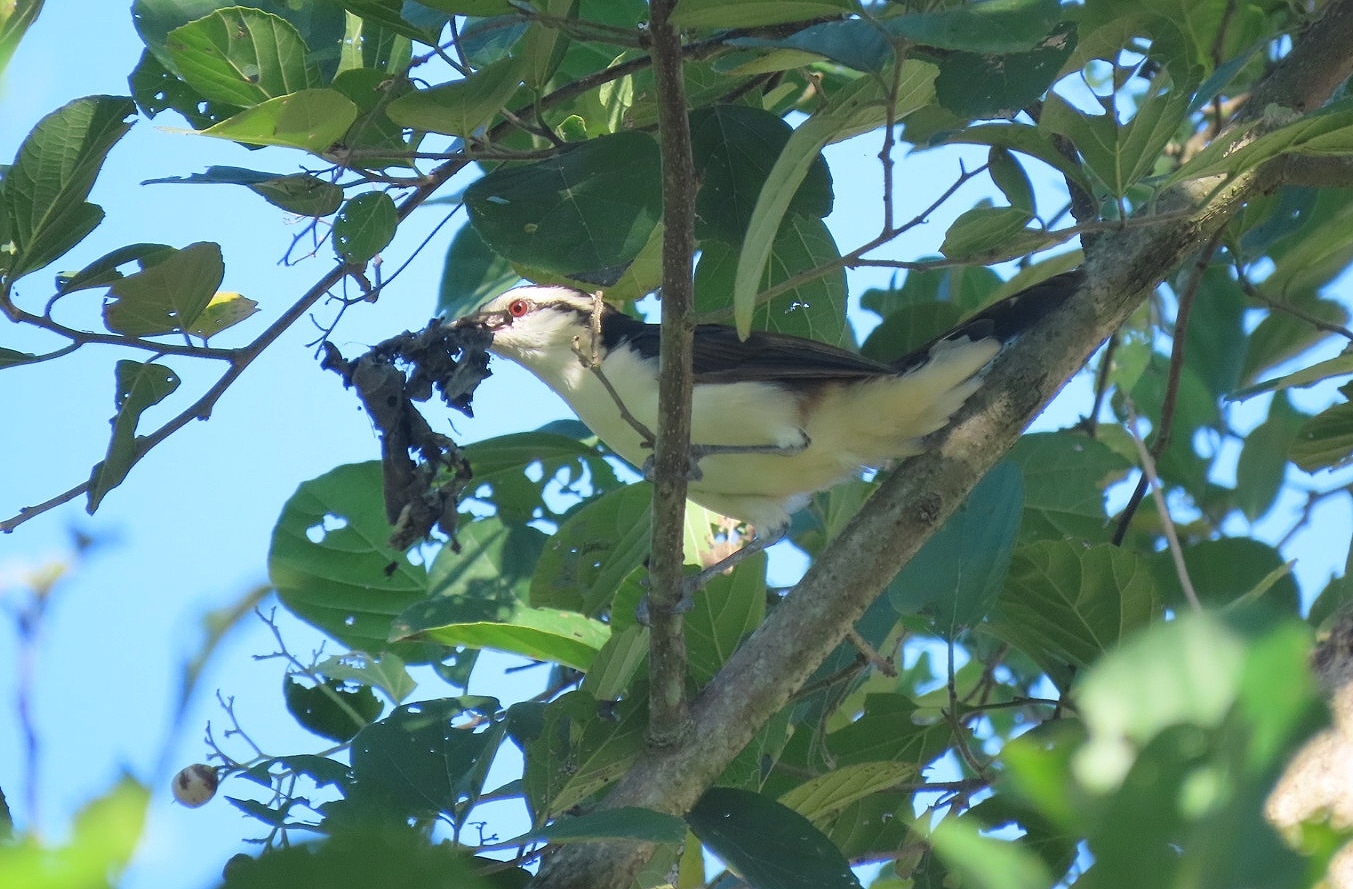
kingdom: Animalia
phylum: Chordata
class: Aves
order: Passeriformes
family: Troglodytidae
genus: Campylorhynchus
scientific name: Campylorhynchus griseus
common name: Bicolored wren
